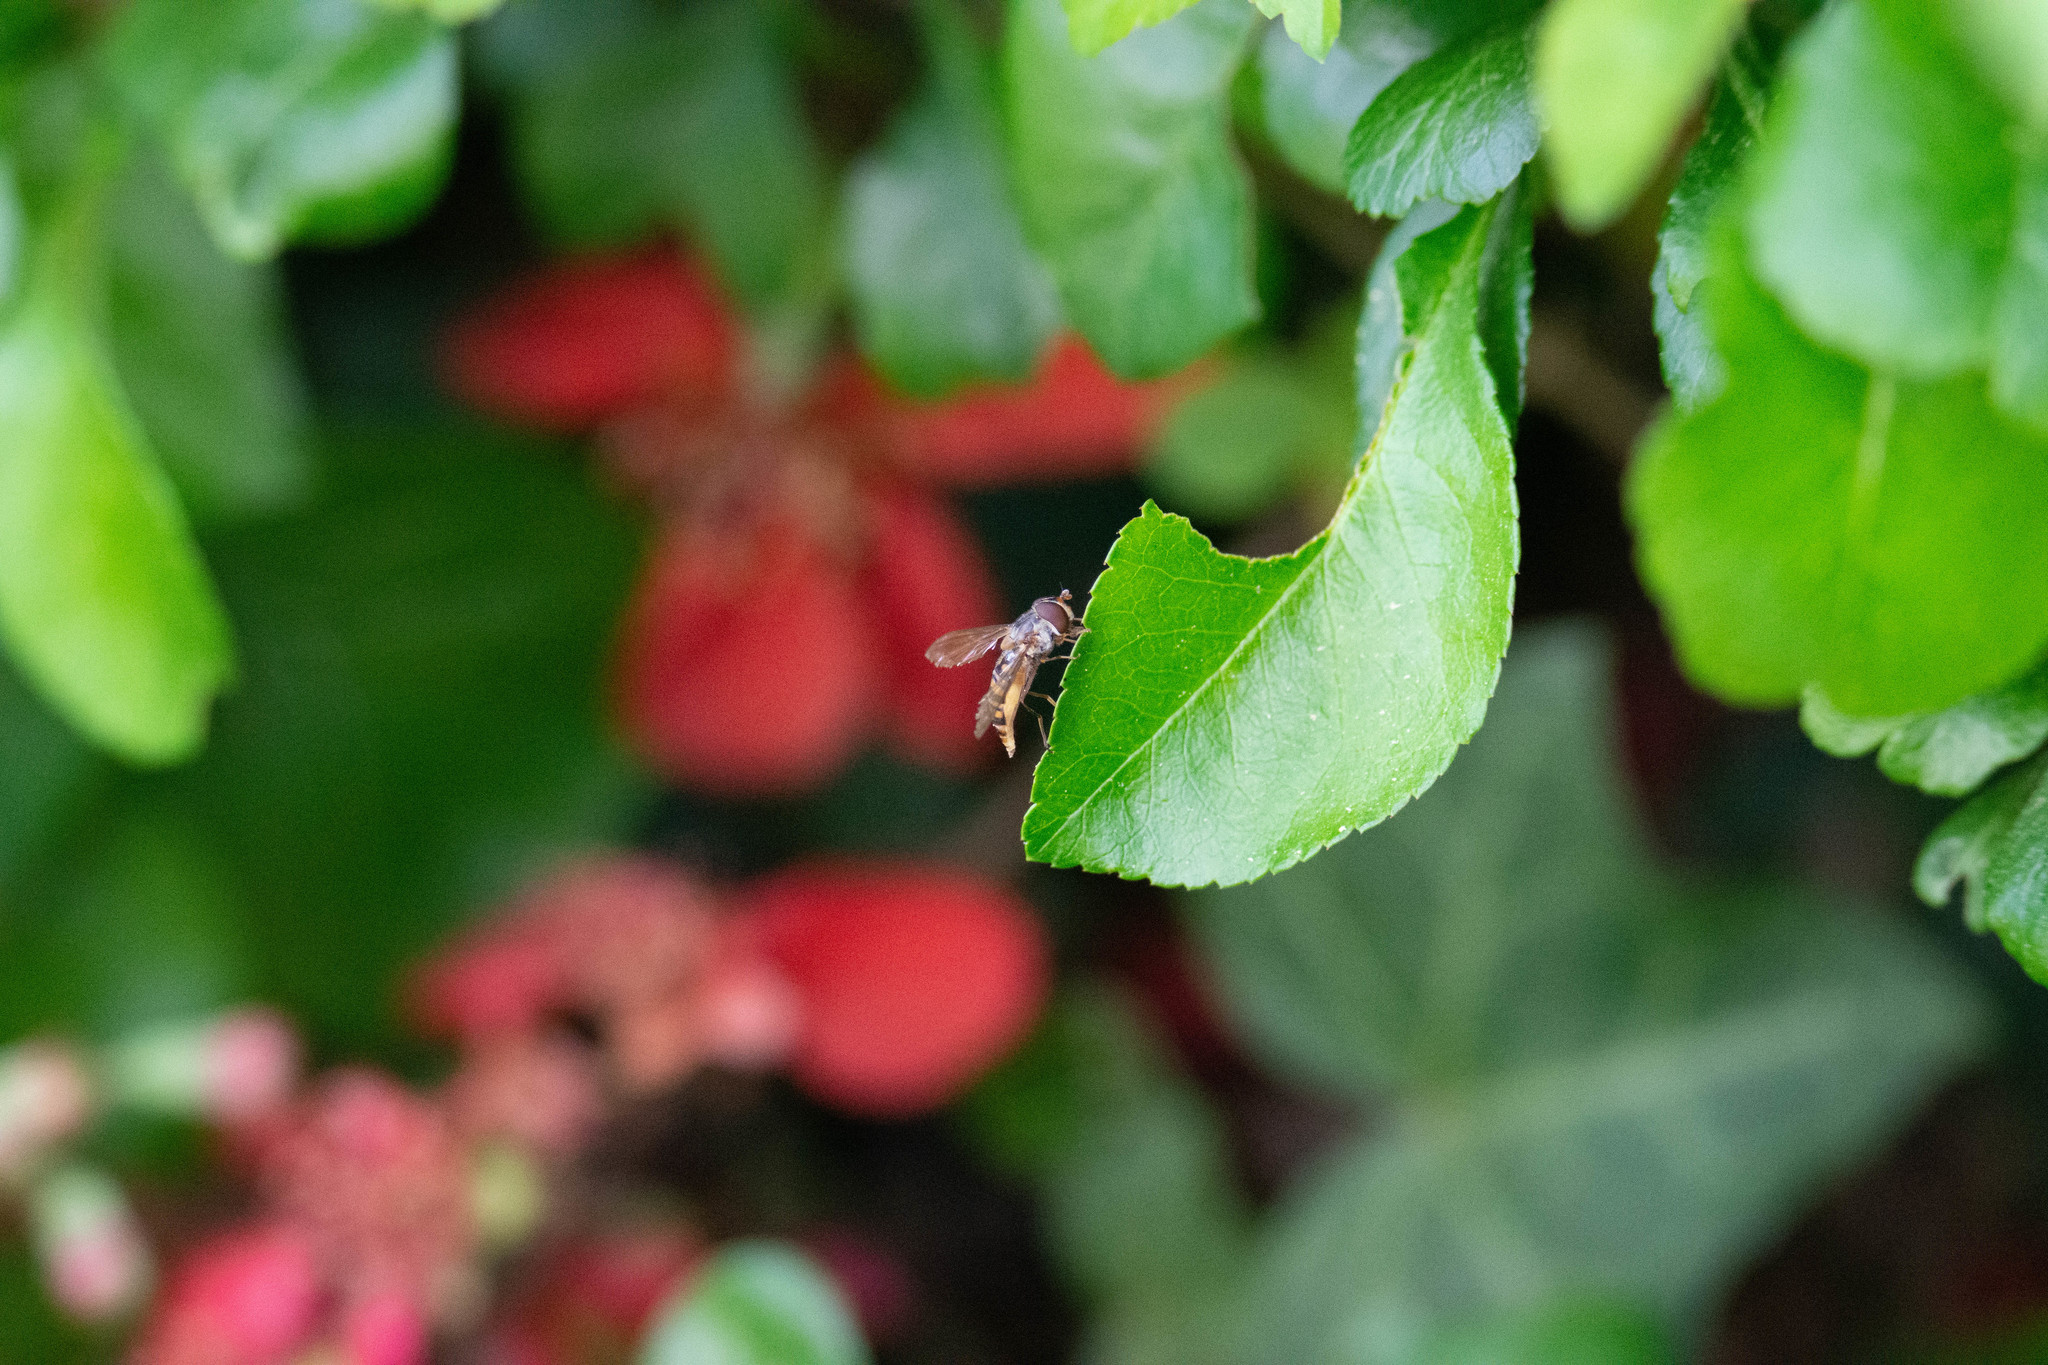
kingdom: Animalia
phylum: Arthropoda
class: Insecta
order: Diptera
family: Syrphidae
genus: Episyrphus
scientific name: Episyrphus balteatus
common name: Marmalade hoverfly
